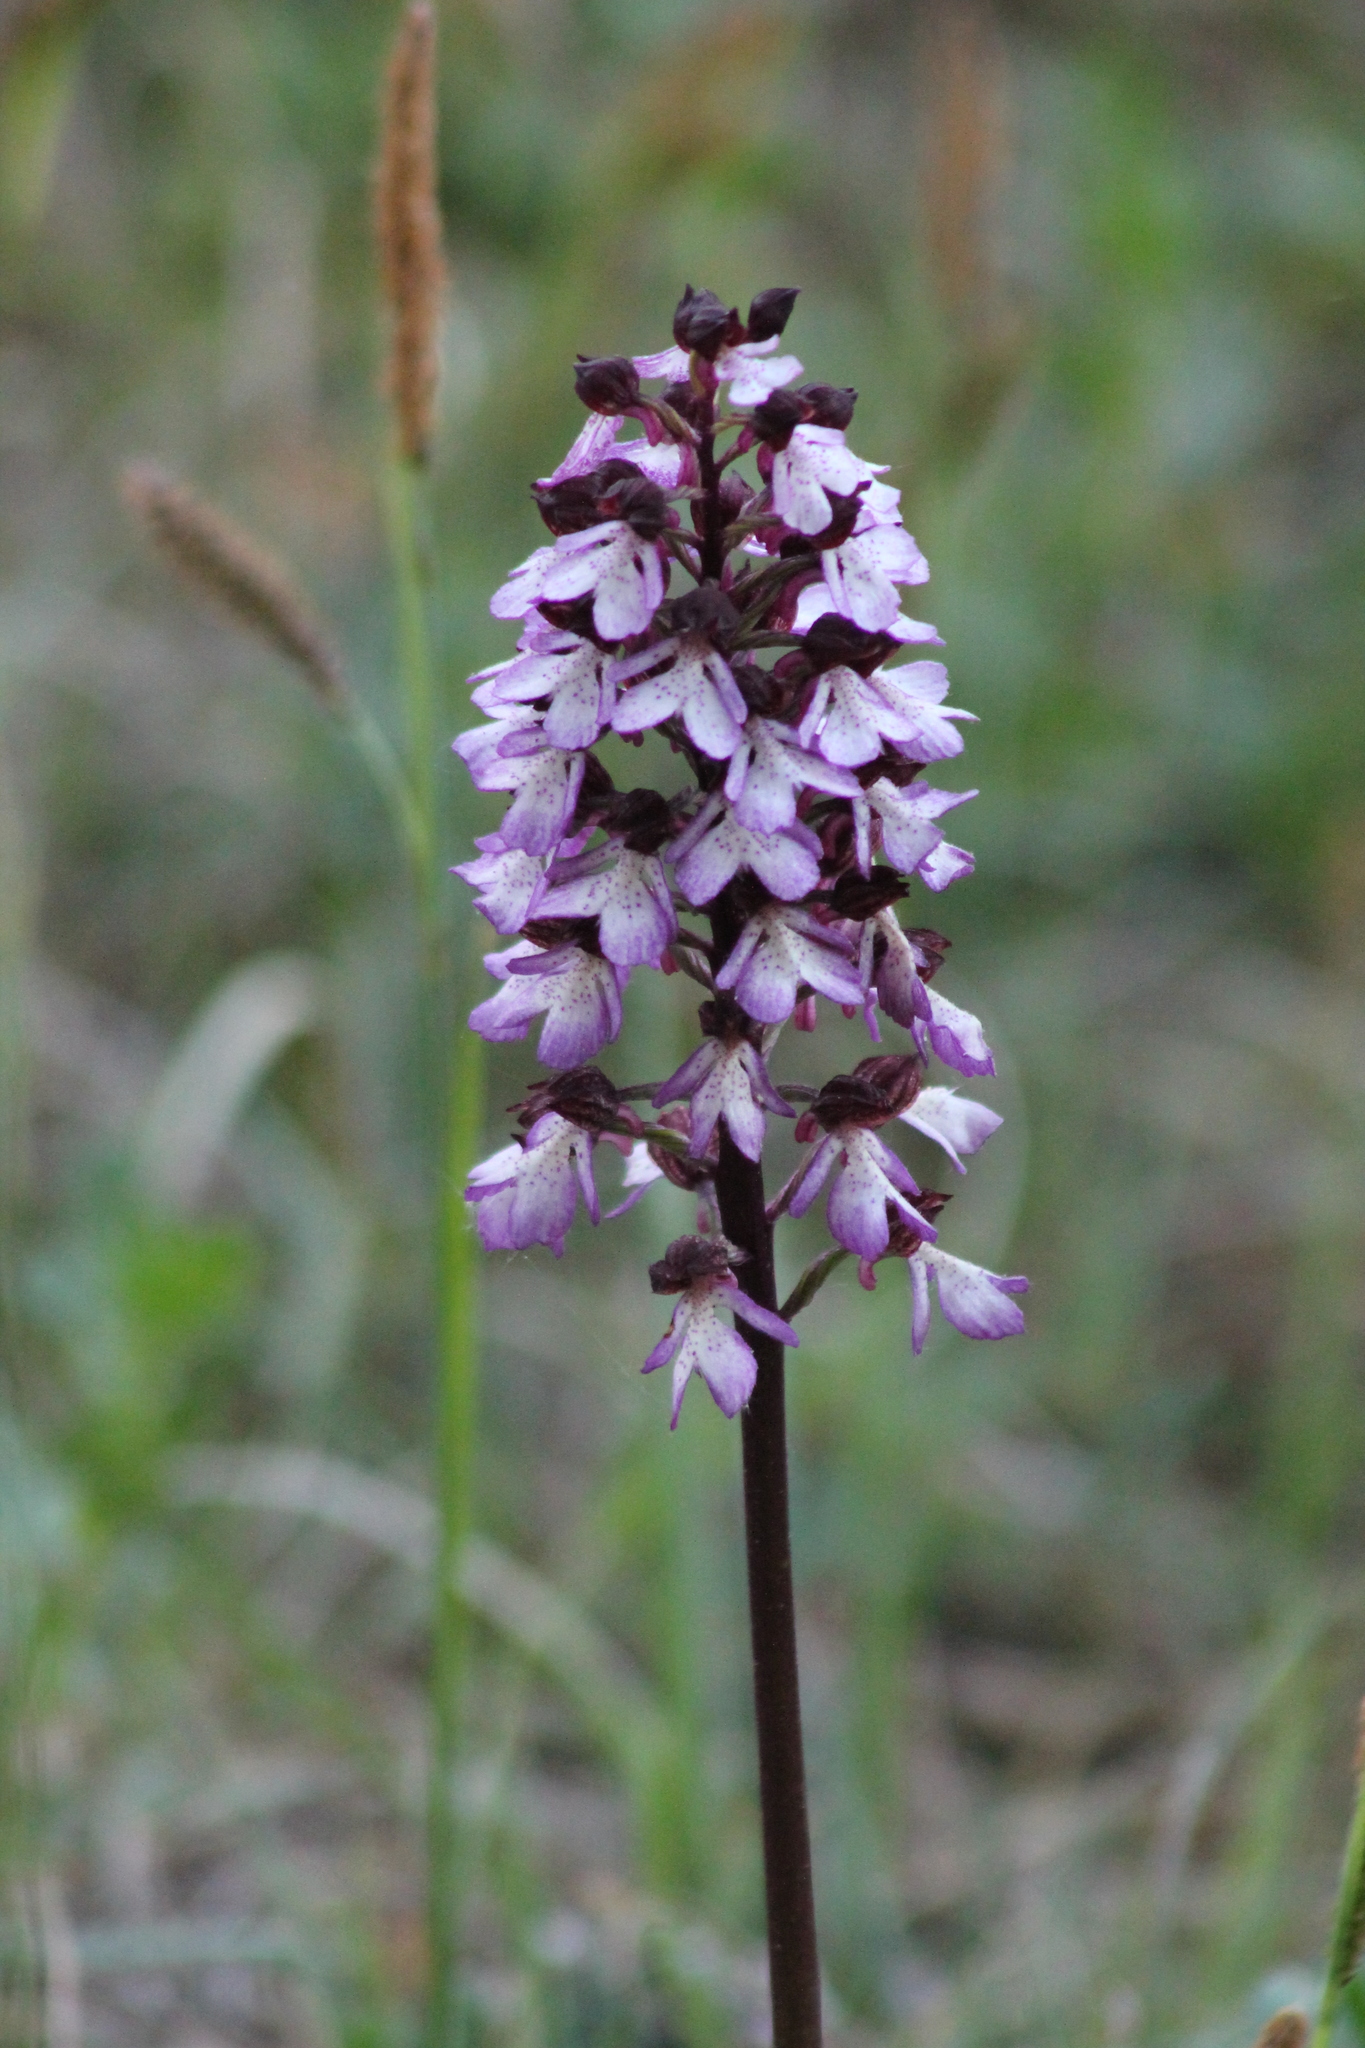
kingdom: Plantae
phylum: Tracheophyta
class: Liliopsida
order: Asparagales
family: Orchidaceae
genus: Orchis
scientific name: Orchis purpurea
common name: Lady orchid
